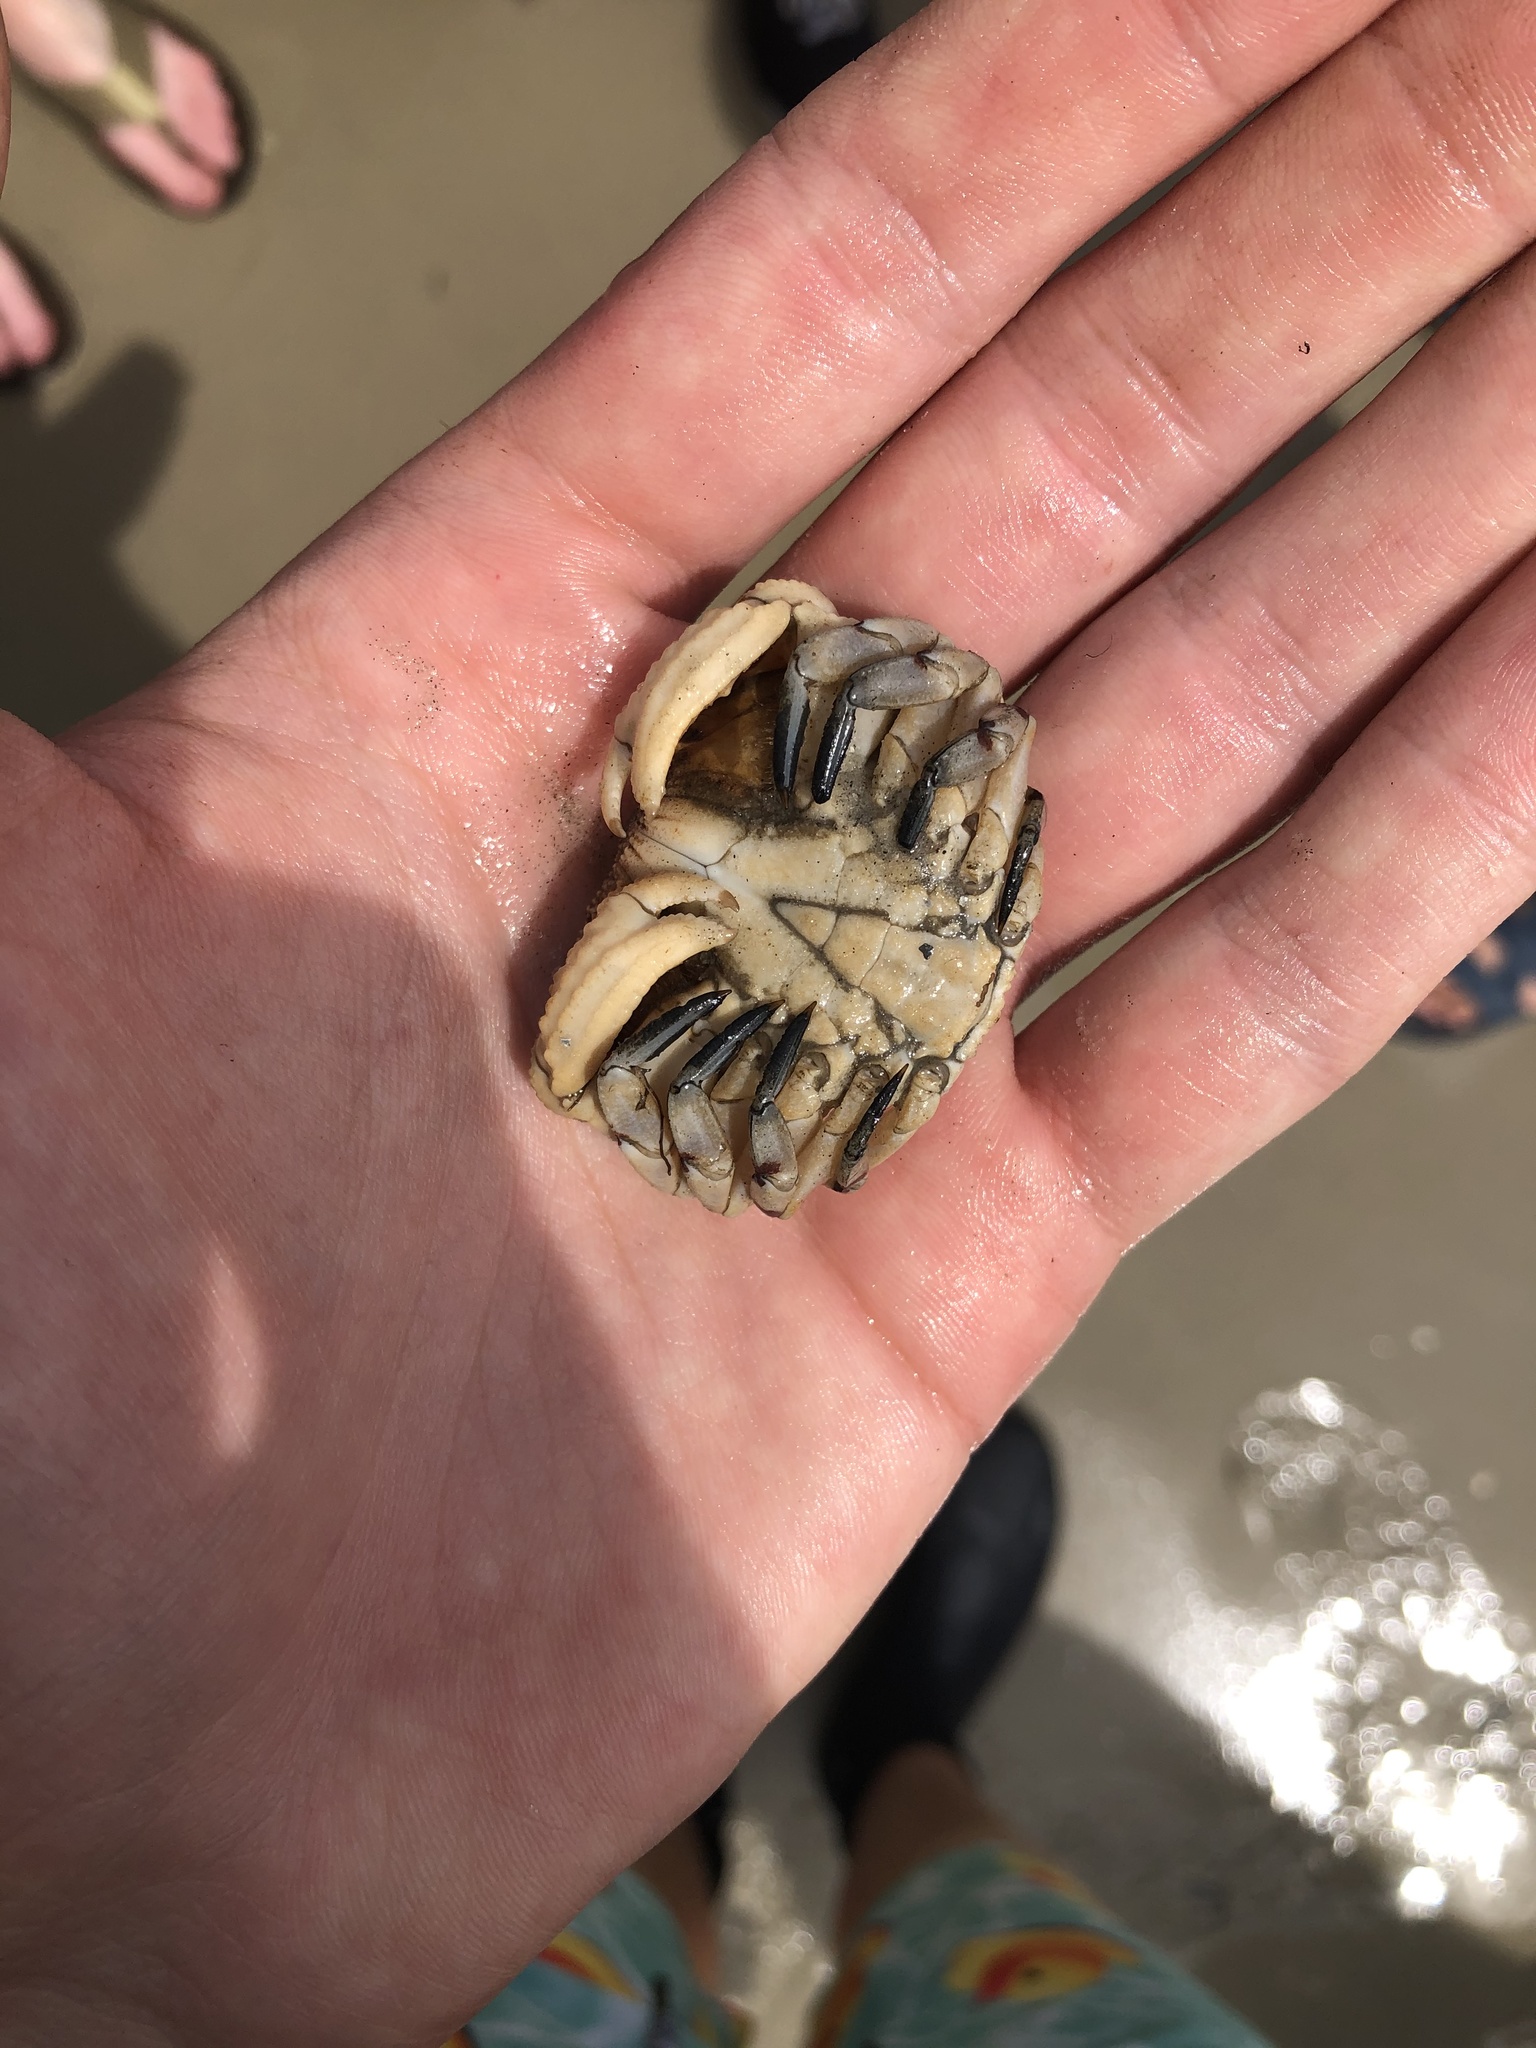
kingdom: Animalia
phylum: Arthropoda
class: Malacostraca
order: Decapoda
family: Aethridae
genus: Hepatus
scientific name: Hepatus epheliticus
